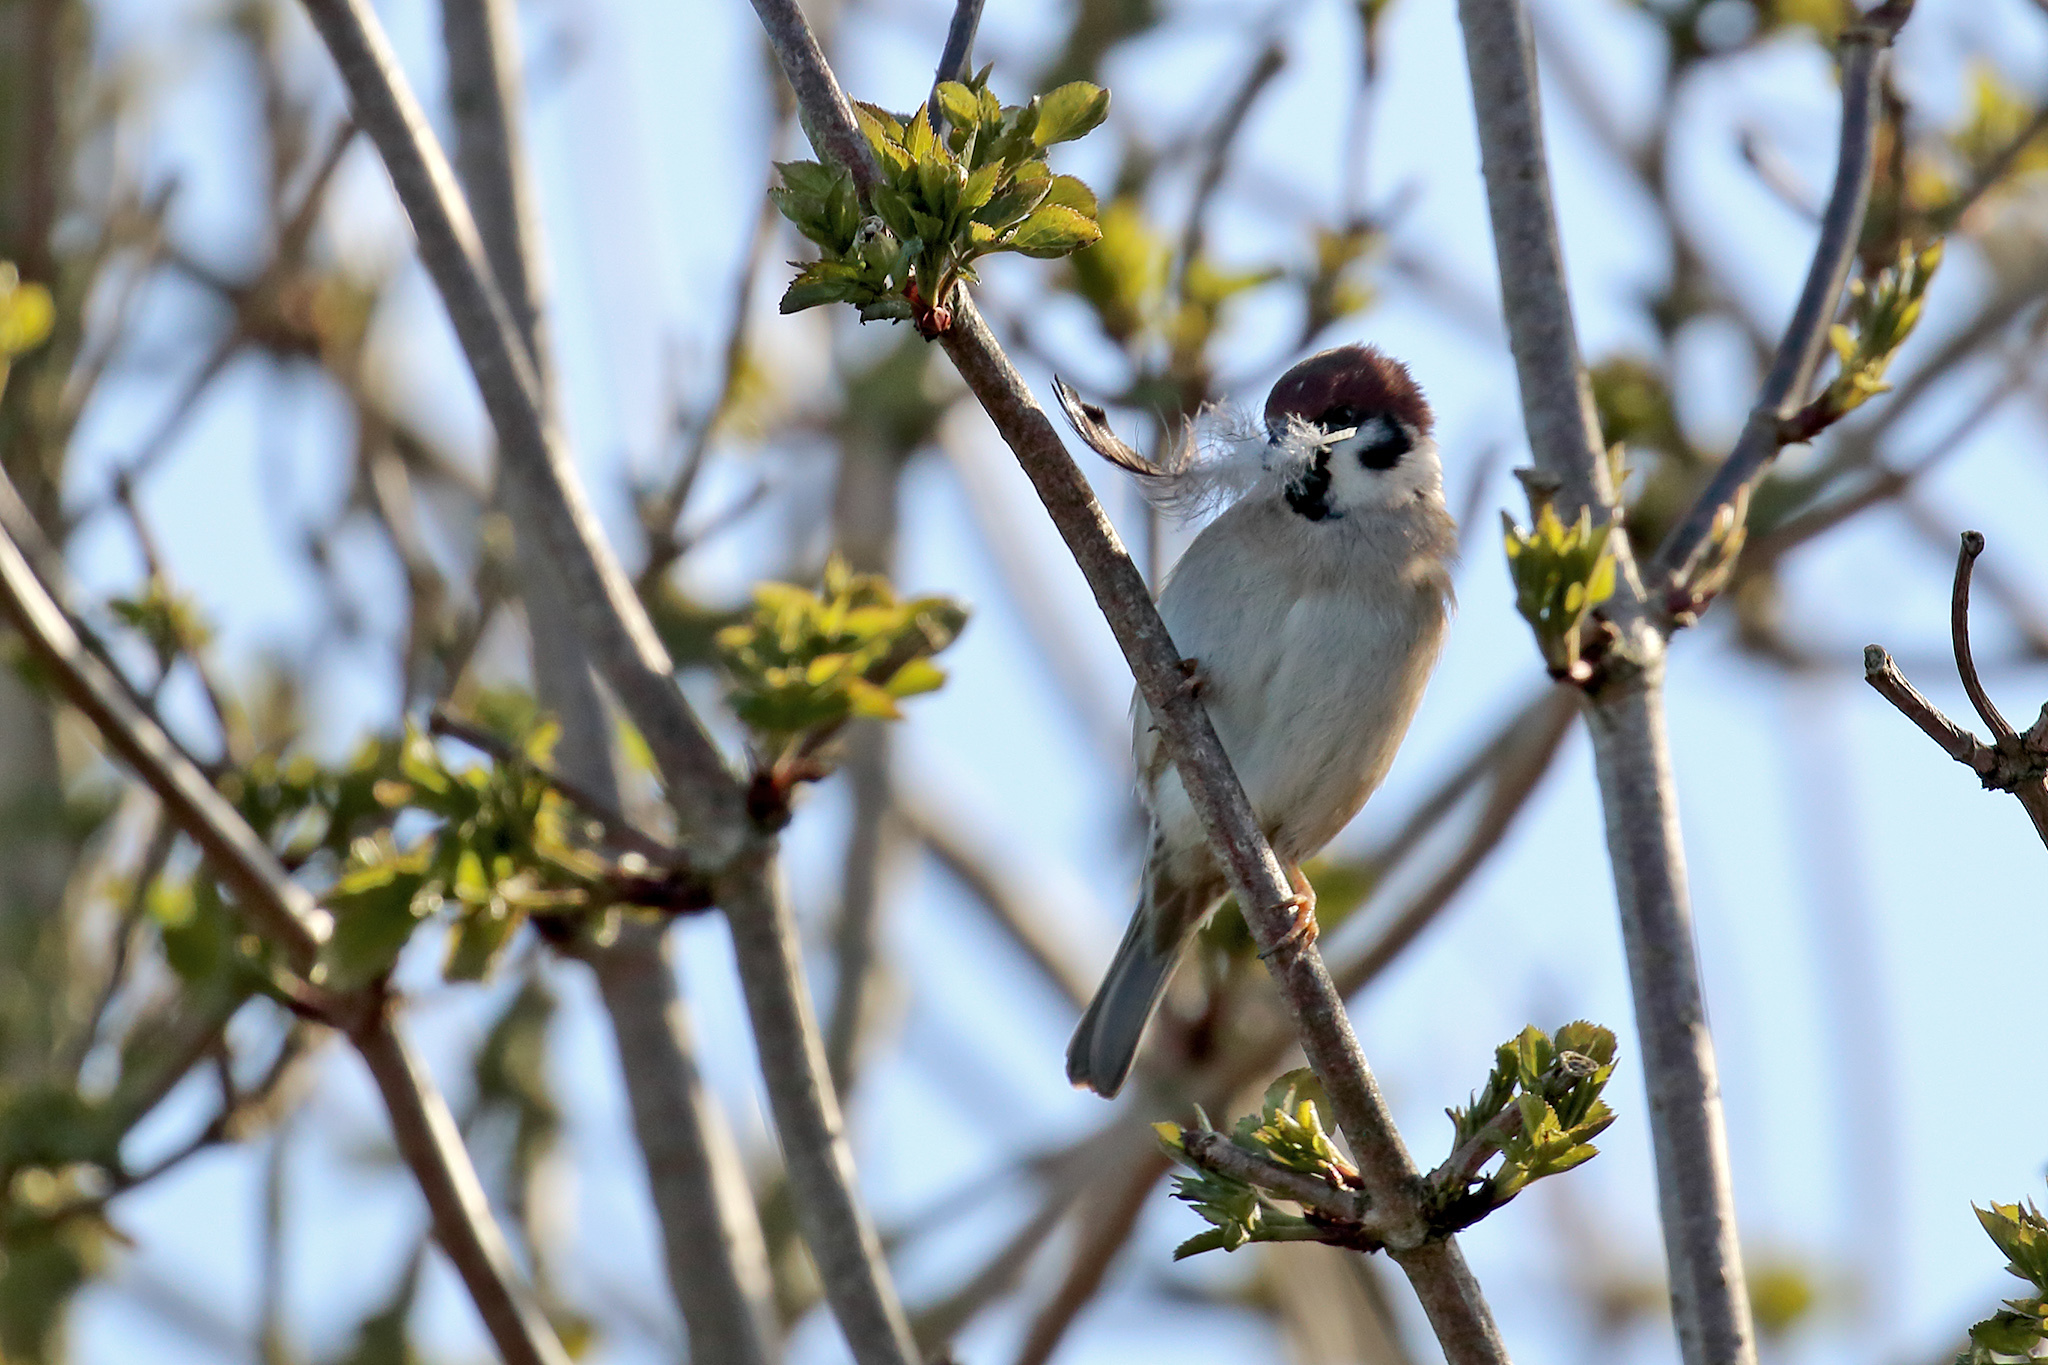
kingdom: Animalia
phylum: Chordata
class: Aves
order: Passeriformes
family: Passeridae
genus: Passer
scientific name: Passer montanus
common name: Eurasian tree sparrow
